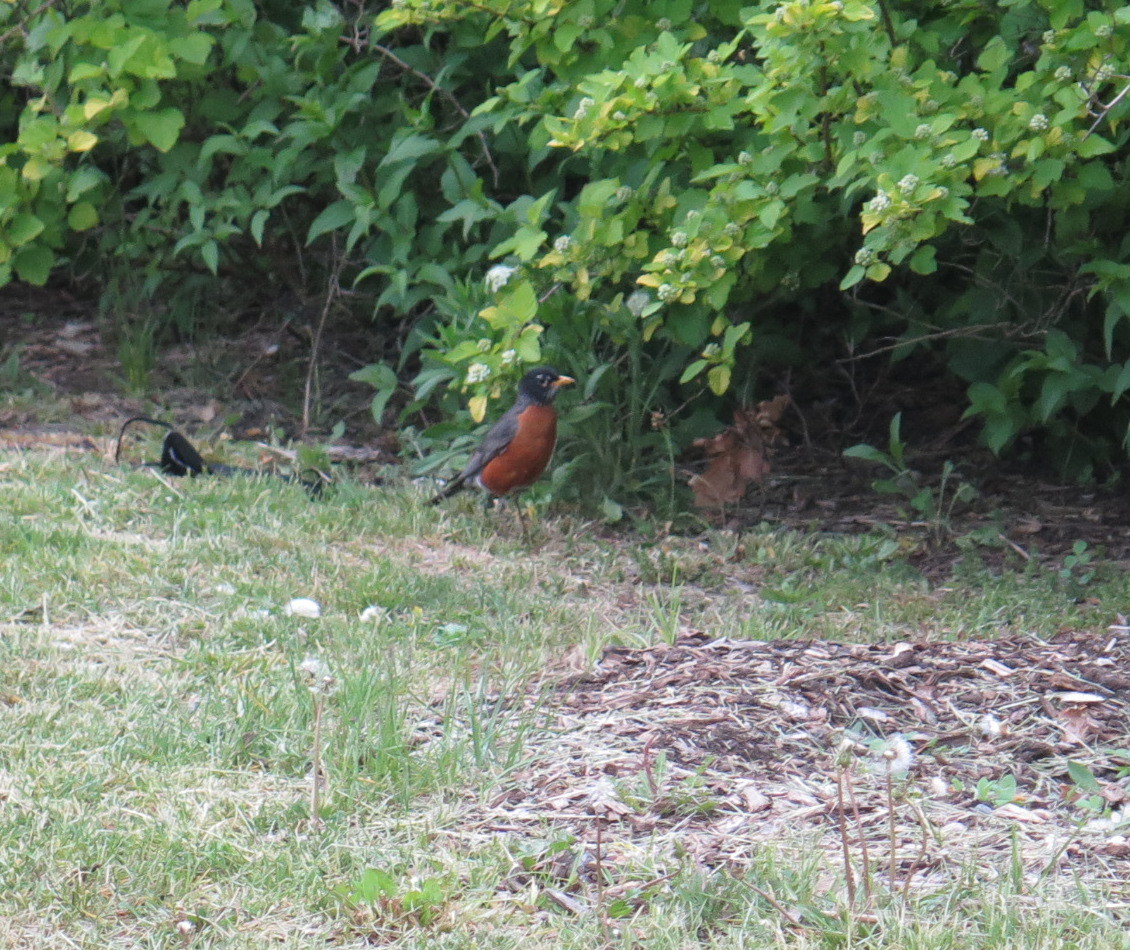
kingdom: Animalia
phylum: Chordata
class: Aves
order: Passeriformes
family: Turdidae
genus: Turdus
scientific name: Turdus migratorius
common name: American robin
